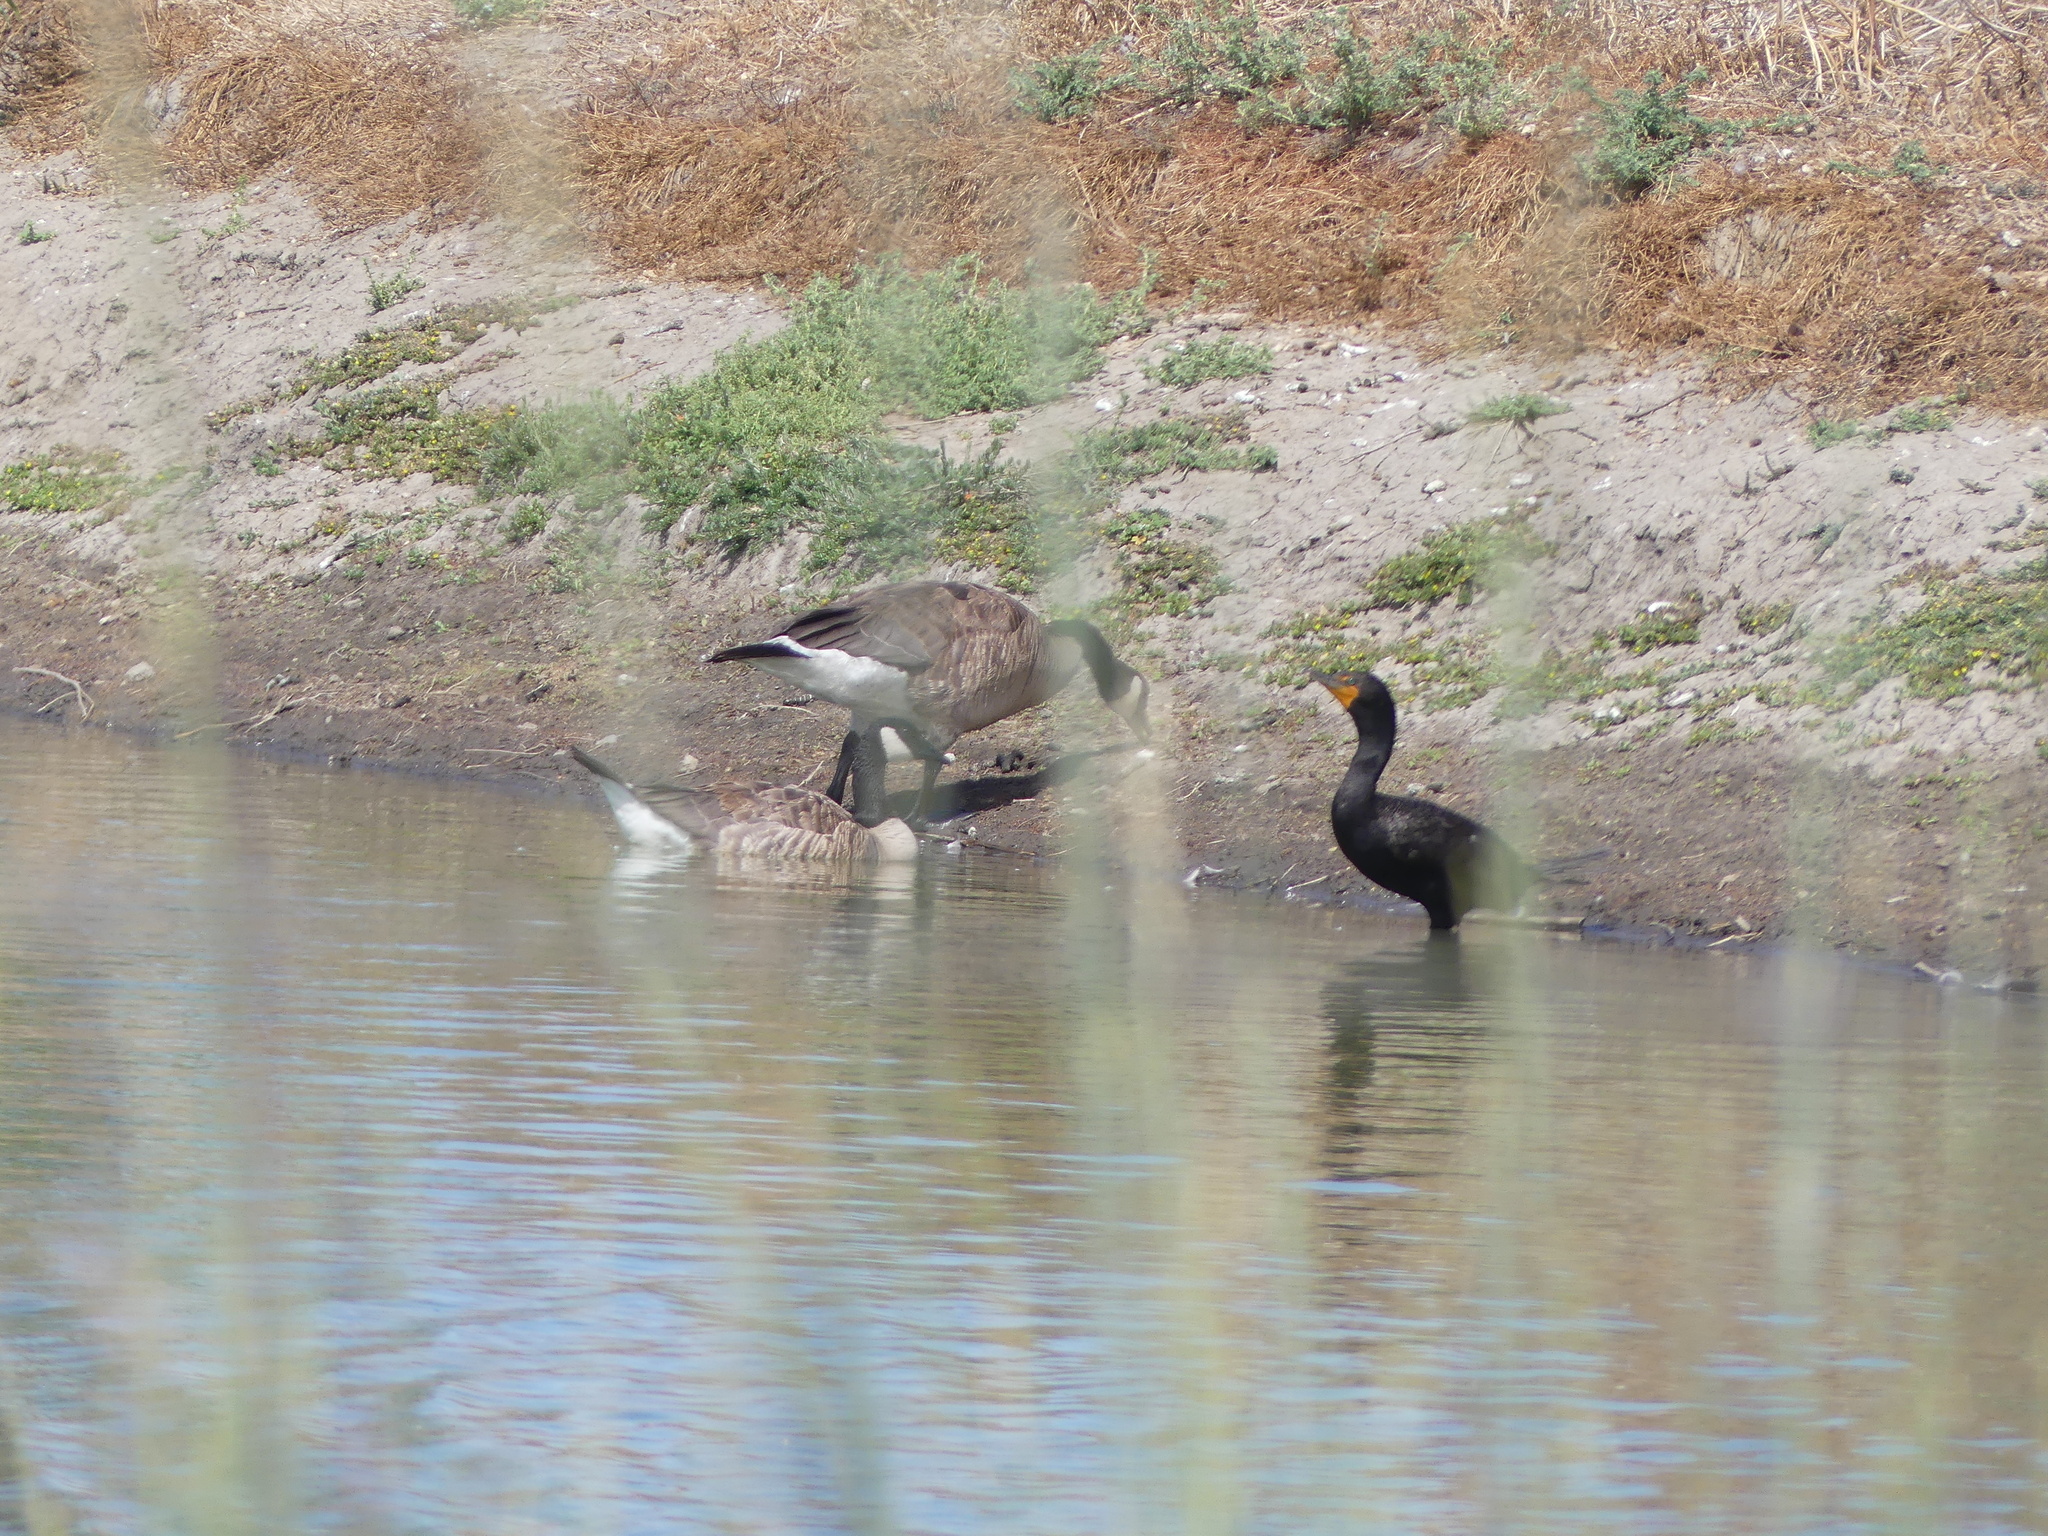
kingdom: Animalia
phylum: Chordata
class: Aves
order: Suliformes
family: Phalacrocoracidae
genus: Phalacrocorax
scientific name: Phalacrocorax auritus
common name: Double-crested cormorant
